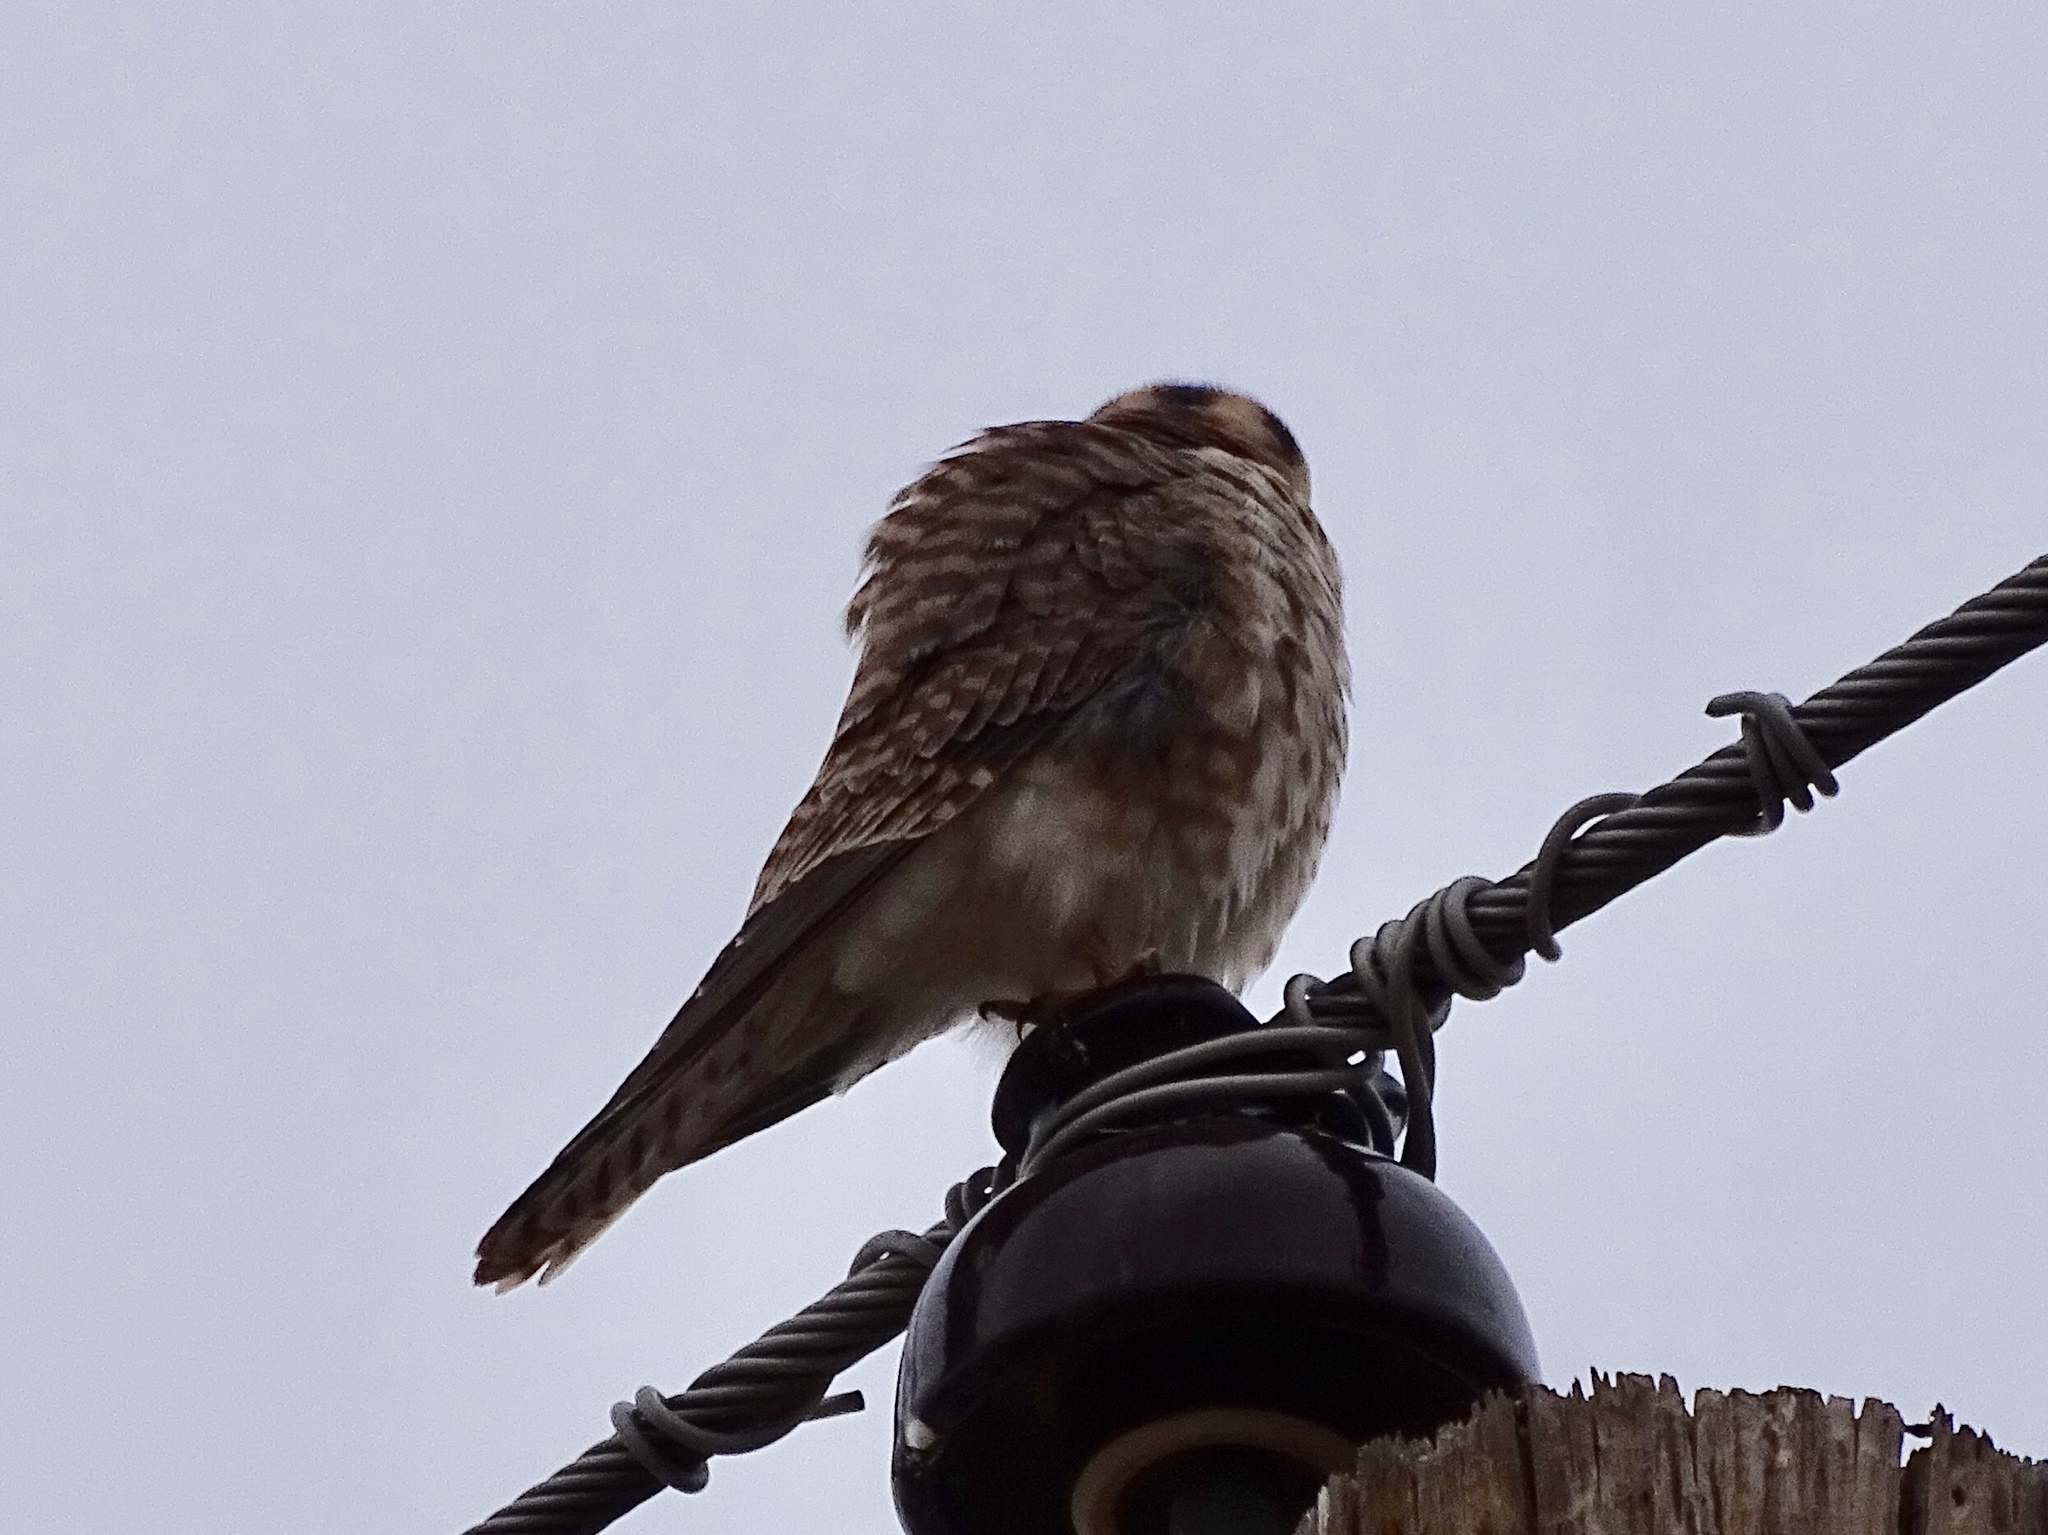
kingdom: Animalia
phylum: Chordata
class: Aves
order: Falconiformes
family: Falconidae
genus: Falco
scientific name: Falco sparverius
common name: American kestrel
